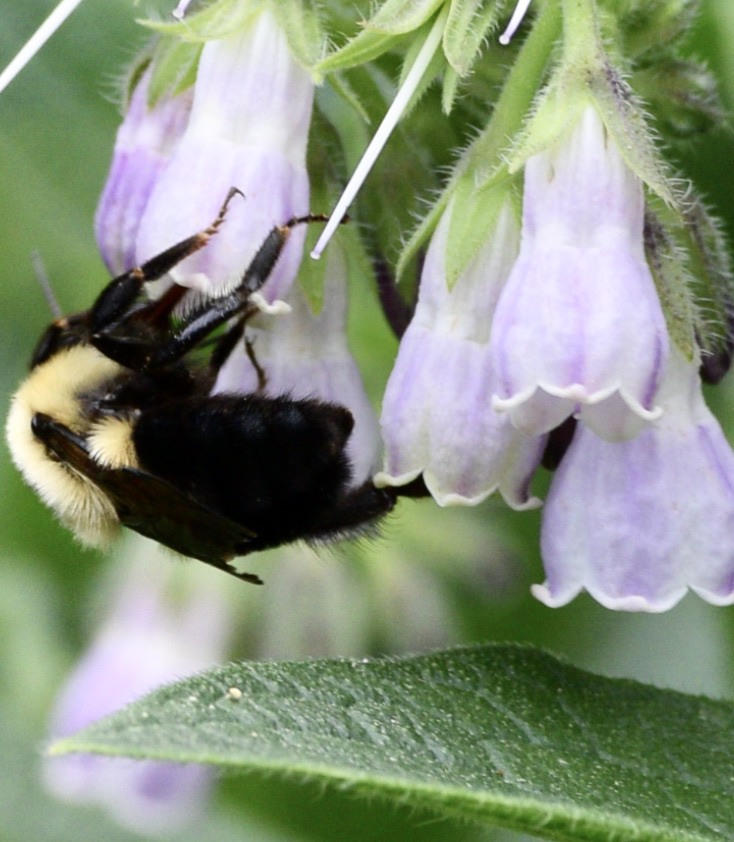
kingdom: Animalia
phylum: Arthropoda
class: Insecta
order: Hymenoptera
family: Apidae
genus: Bombus
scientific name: Bombus bimaculatus
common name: Two-spotted bumble bee
